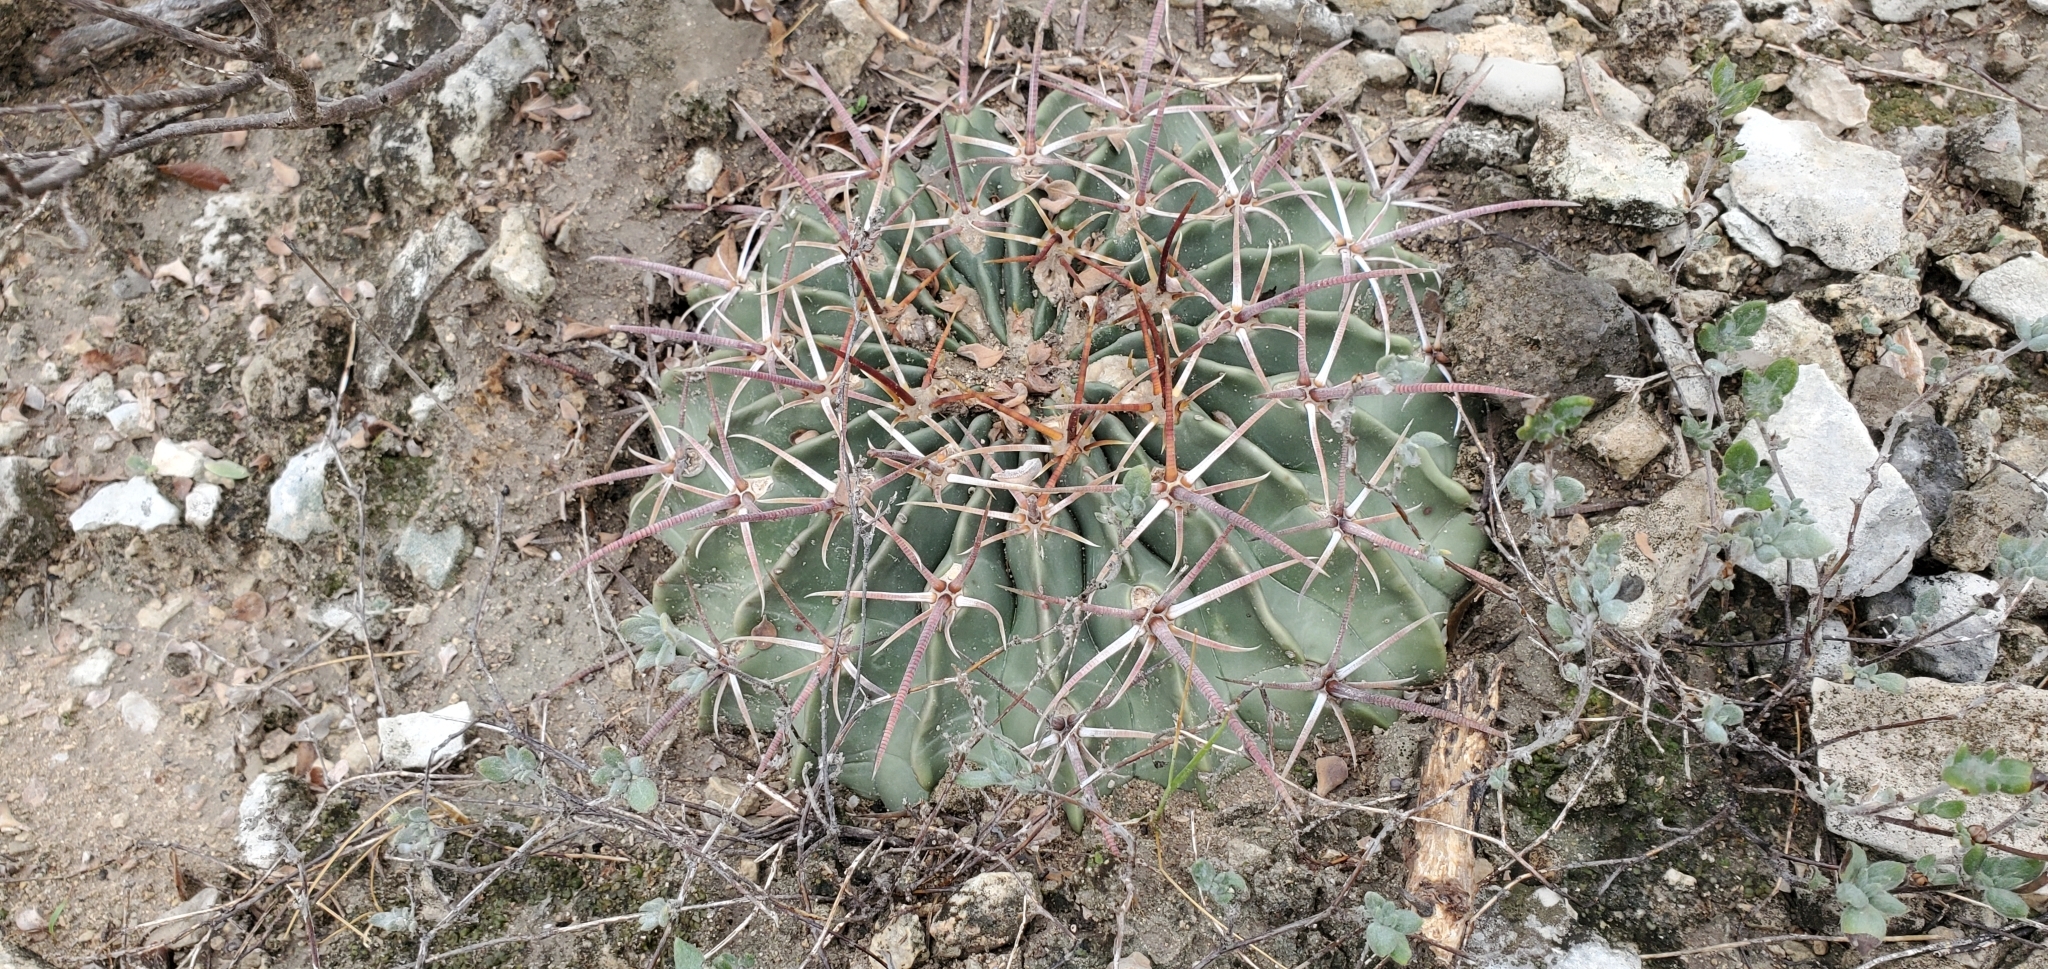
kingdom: Plantae
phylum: Tracheophyta
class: Magnoliopsida
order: Caryophyllales
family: Cactaceae
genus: Echinocactus
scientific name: Echinocactus texensis
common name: Devil's pincushion
